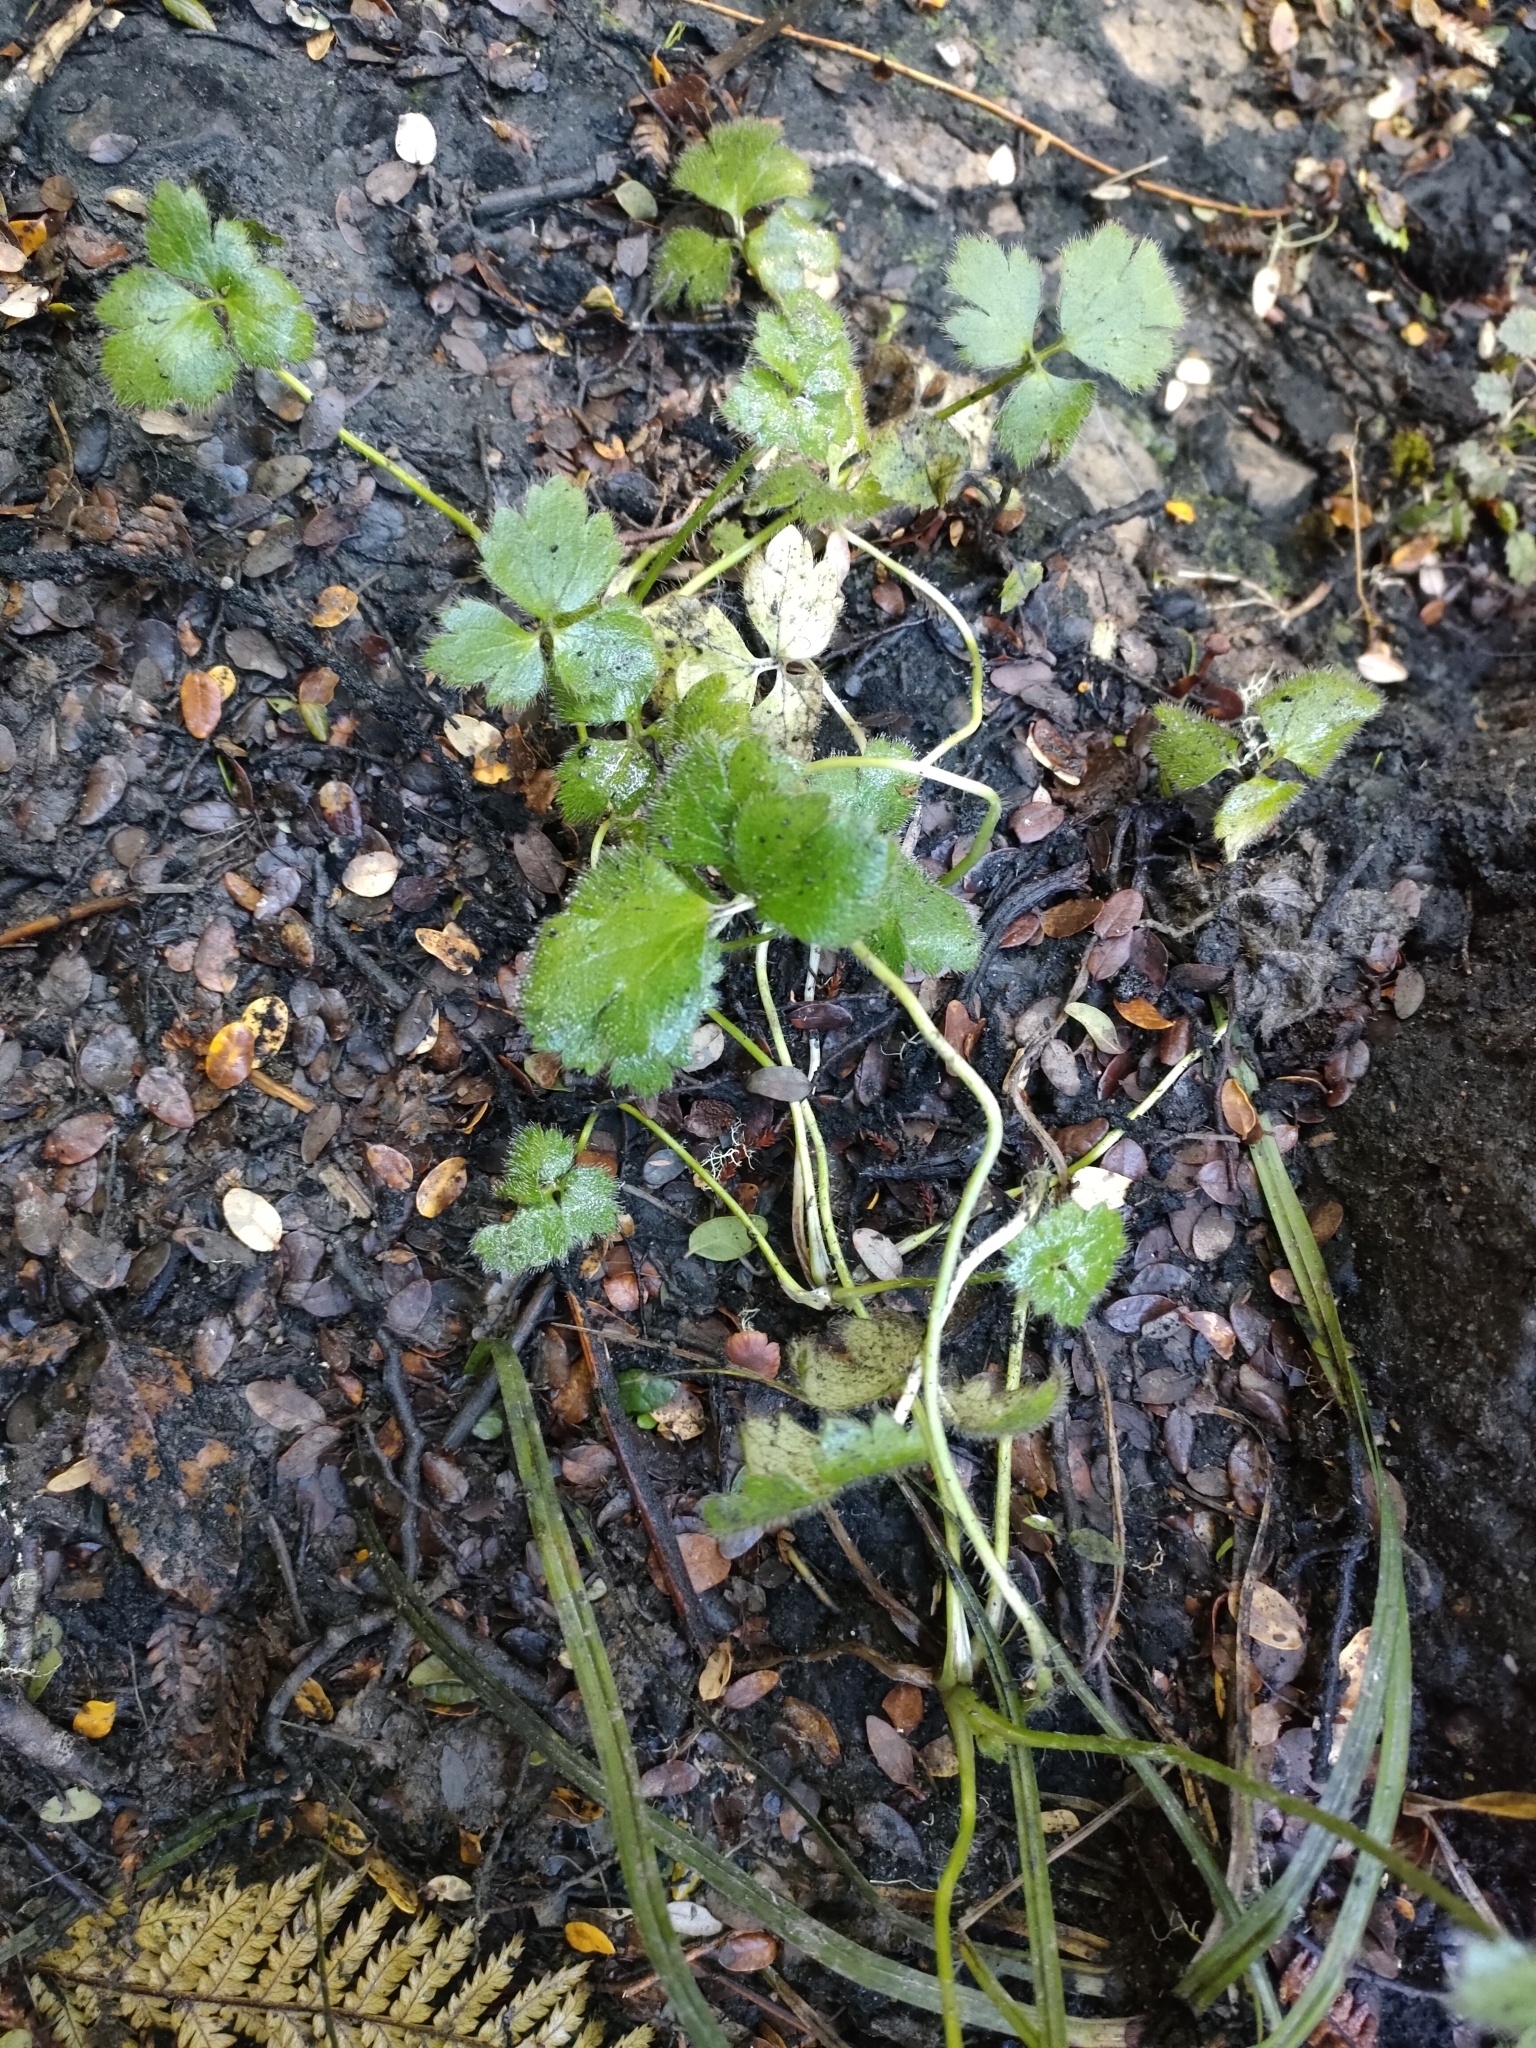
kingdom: Plantae
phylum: Tracheophyta
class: Magnoliopsida
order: Ranunculales
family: Ranunculaceae
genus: Ranunculus
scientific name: Ranunculus repens
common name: Creeping buttercup
